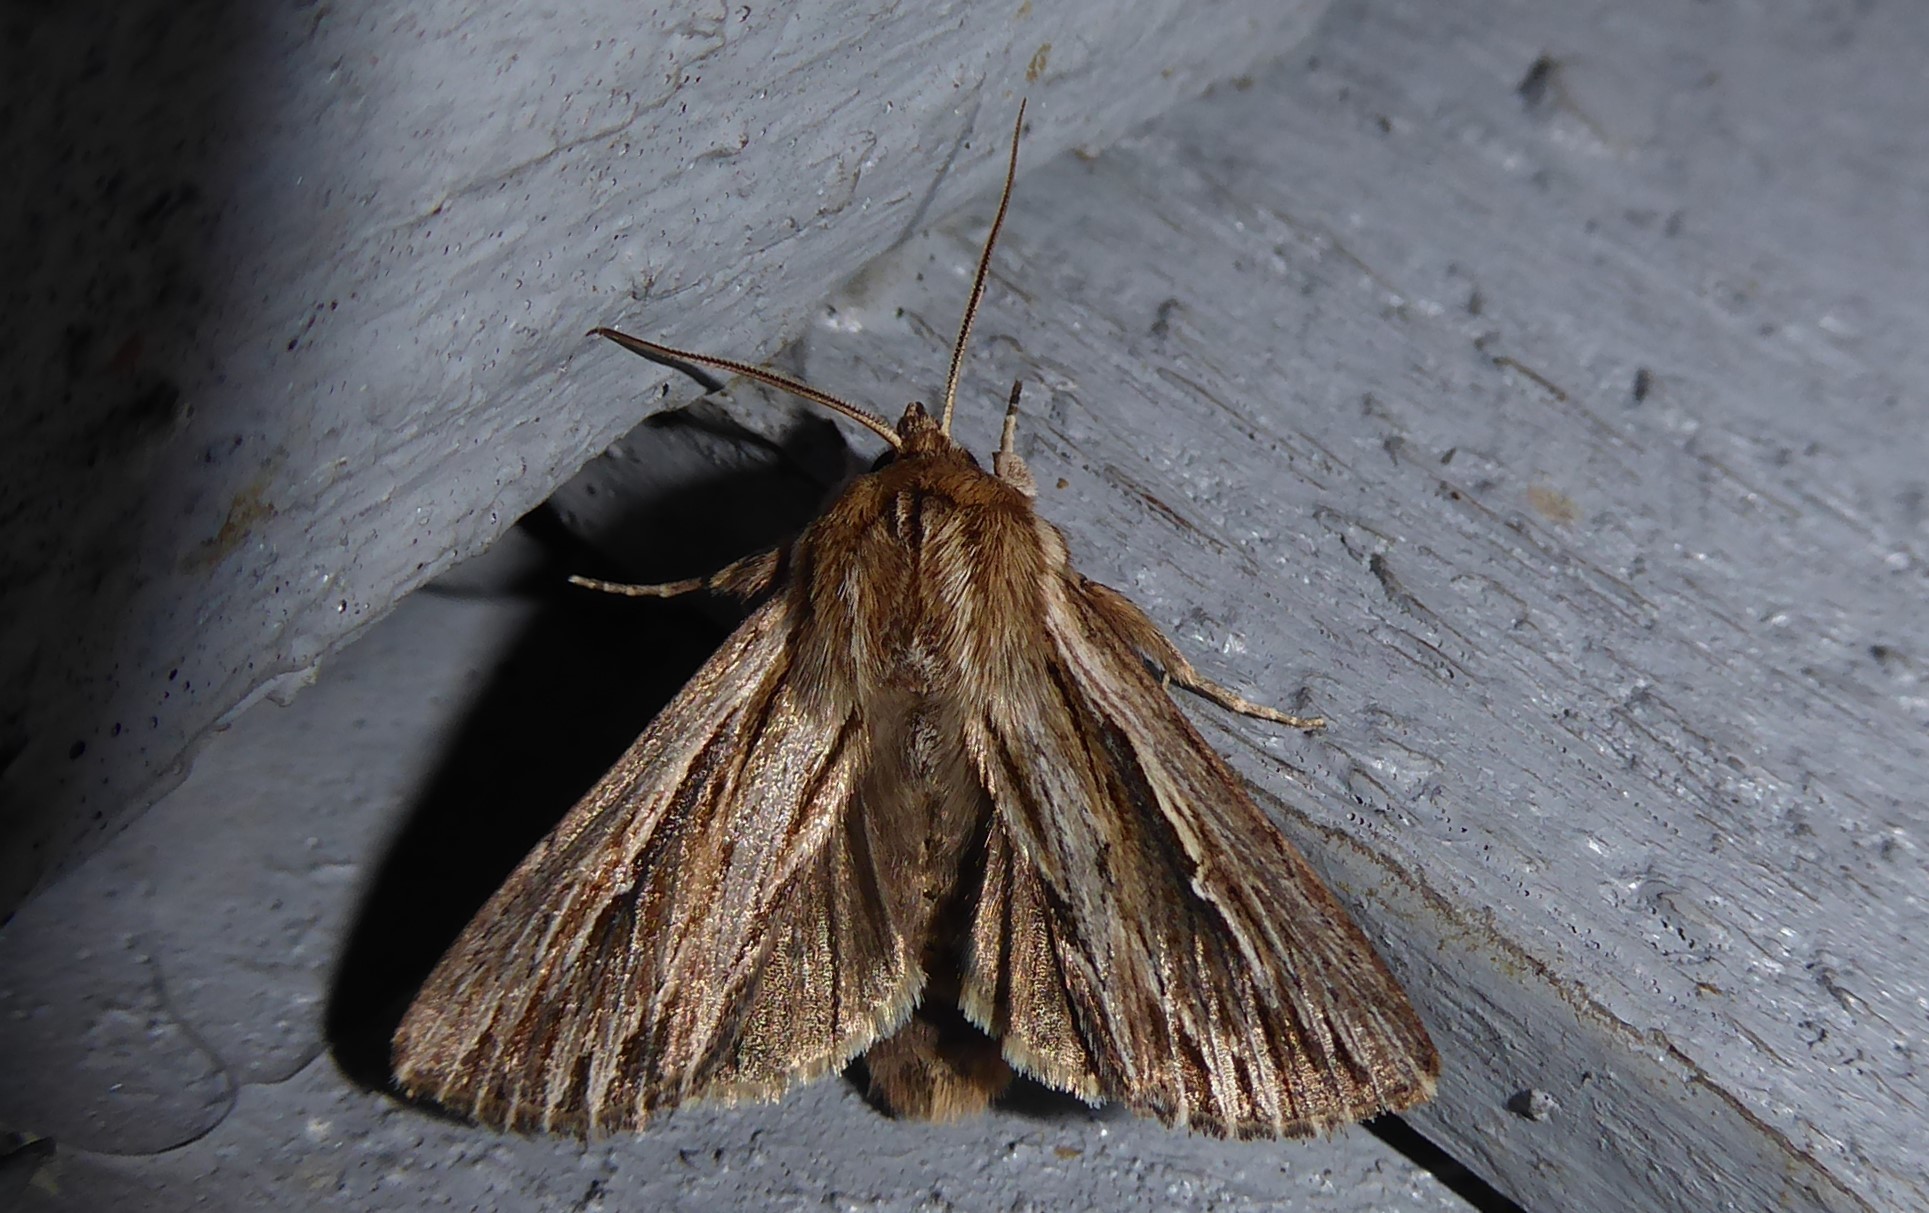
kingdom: Animalia
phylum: Arthropoda
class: Insecta
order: Lepidoptera
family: Noctuidae
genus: Persectania
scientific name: Persectania aversa
